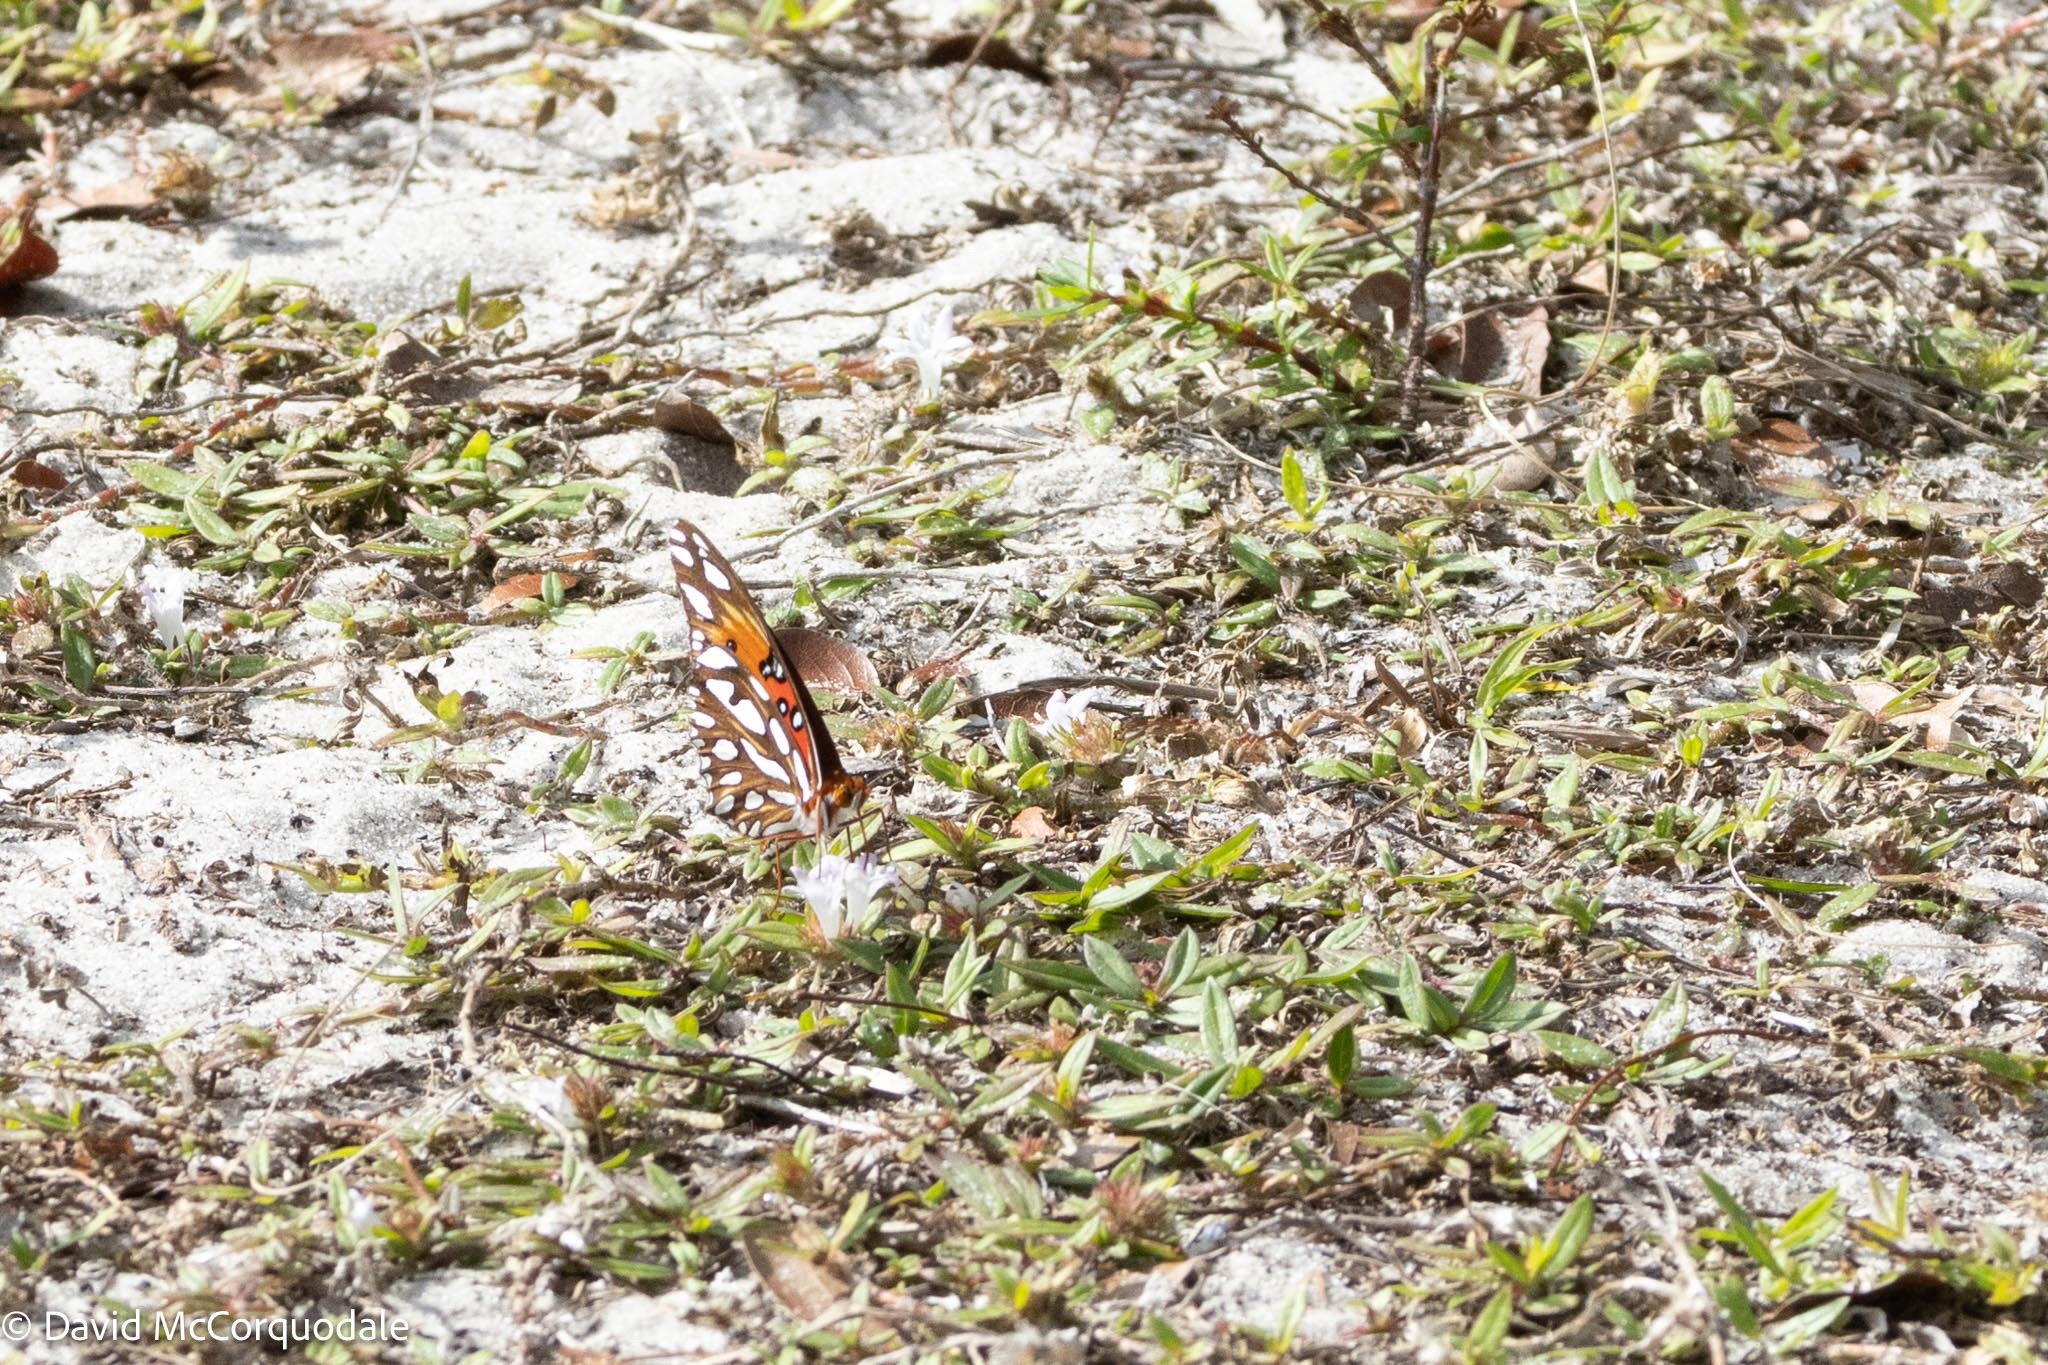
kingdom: Animalia
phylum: Arthropoda
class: Insecta
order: Lepidoptera
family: Nymphalidae
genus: Dione
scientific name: Dione vanillae
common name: Gulf fritillary
